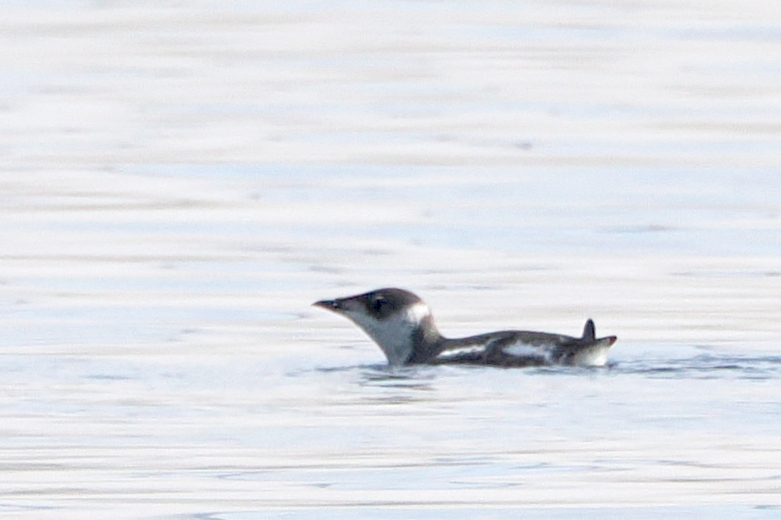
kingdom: Animalia
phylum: Chordata
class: Aves
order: Charadriiformes
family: Alcidae
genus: Brachyramphus
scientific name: Brachyramphus marmoratus
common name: Marbled murrelet
